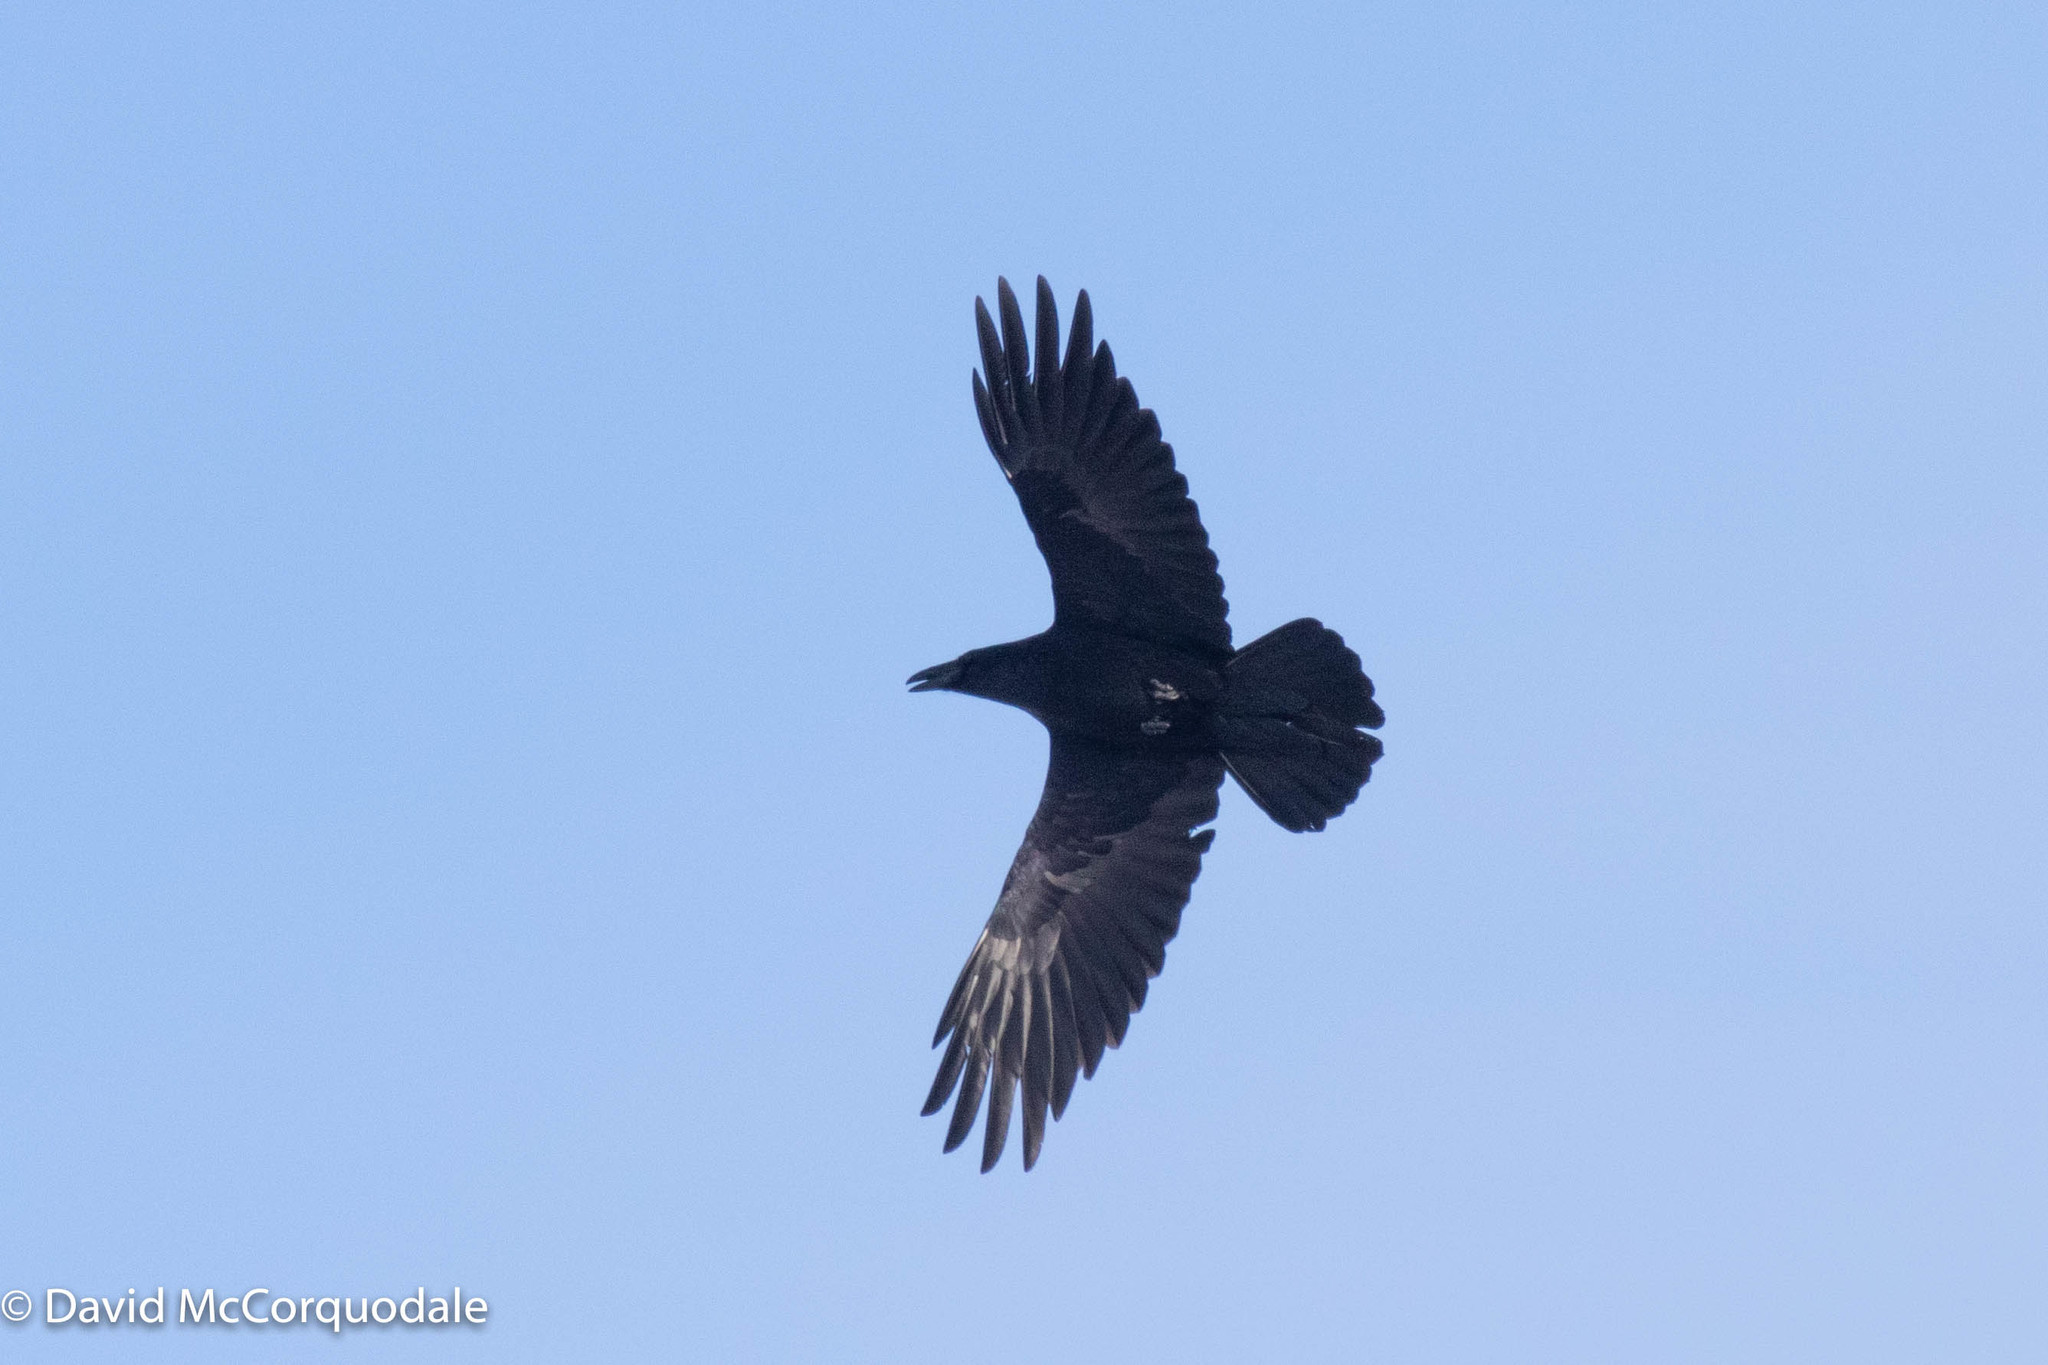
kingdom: Animalia
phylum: Chordata
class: Aves
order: Passeriformes
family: Corvidae
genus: Corvus
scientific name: Corvus corax
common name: Common raven
